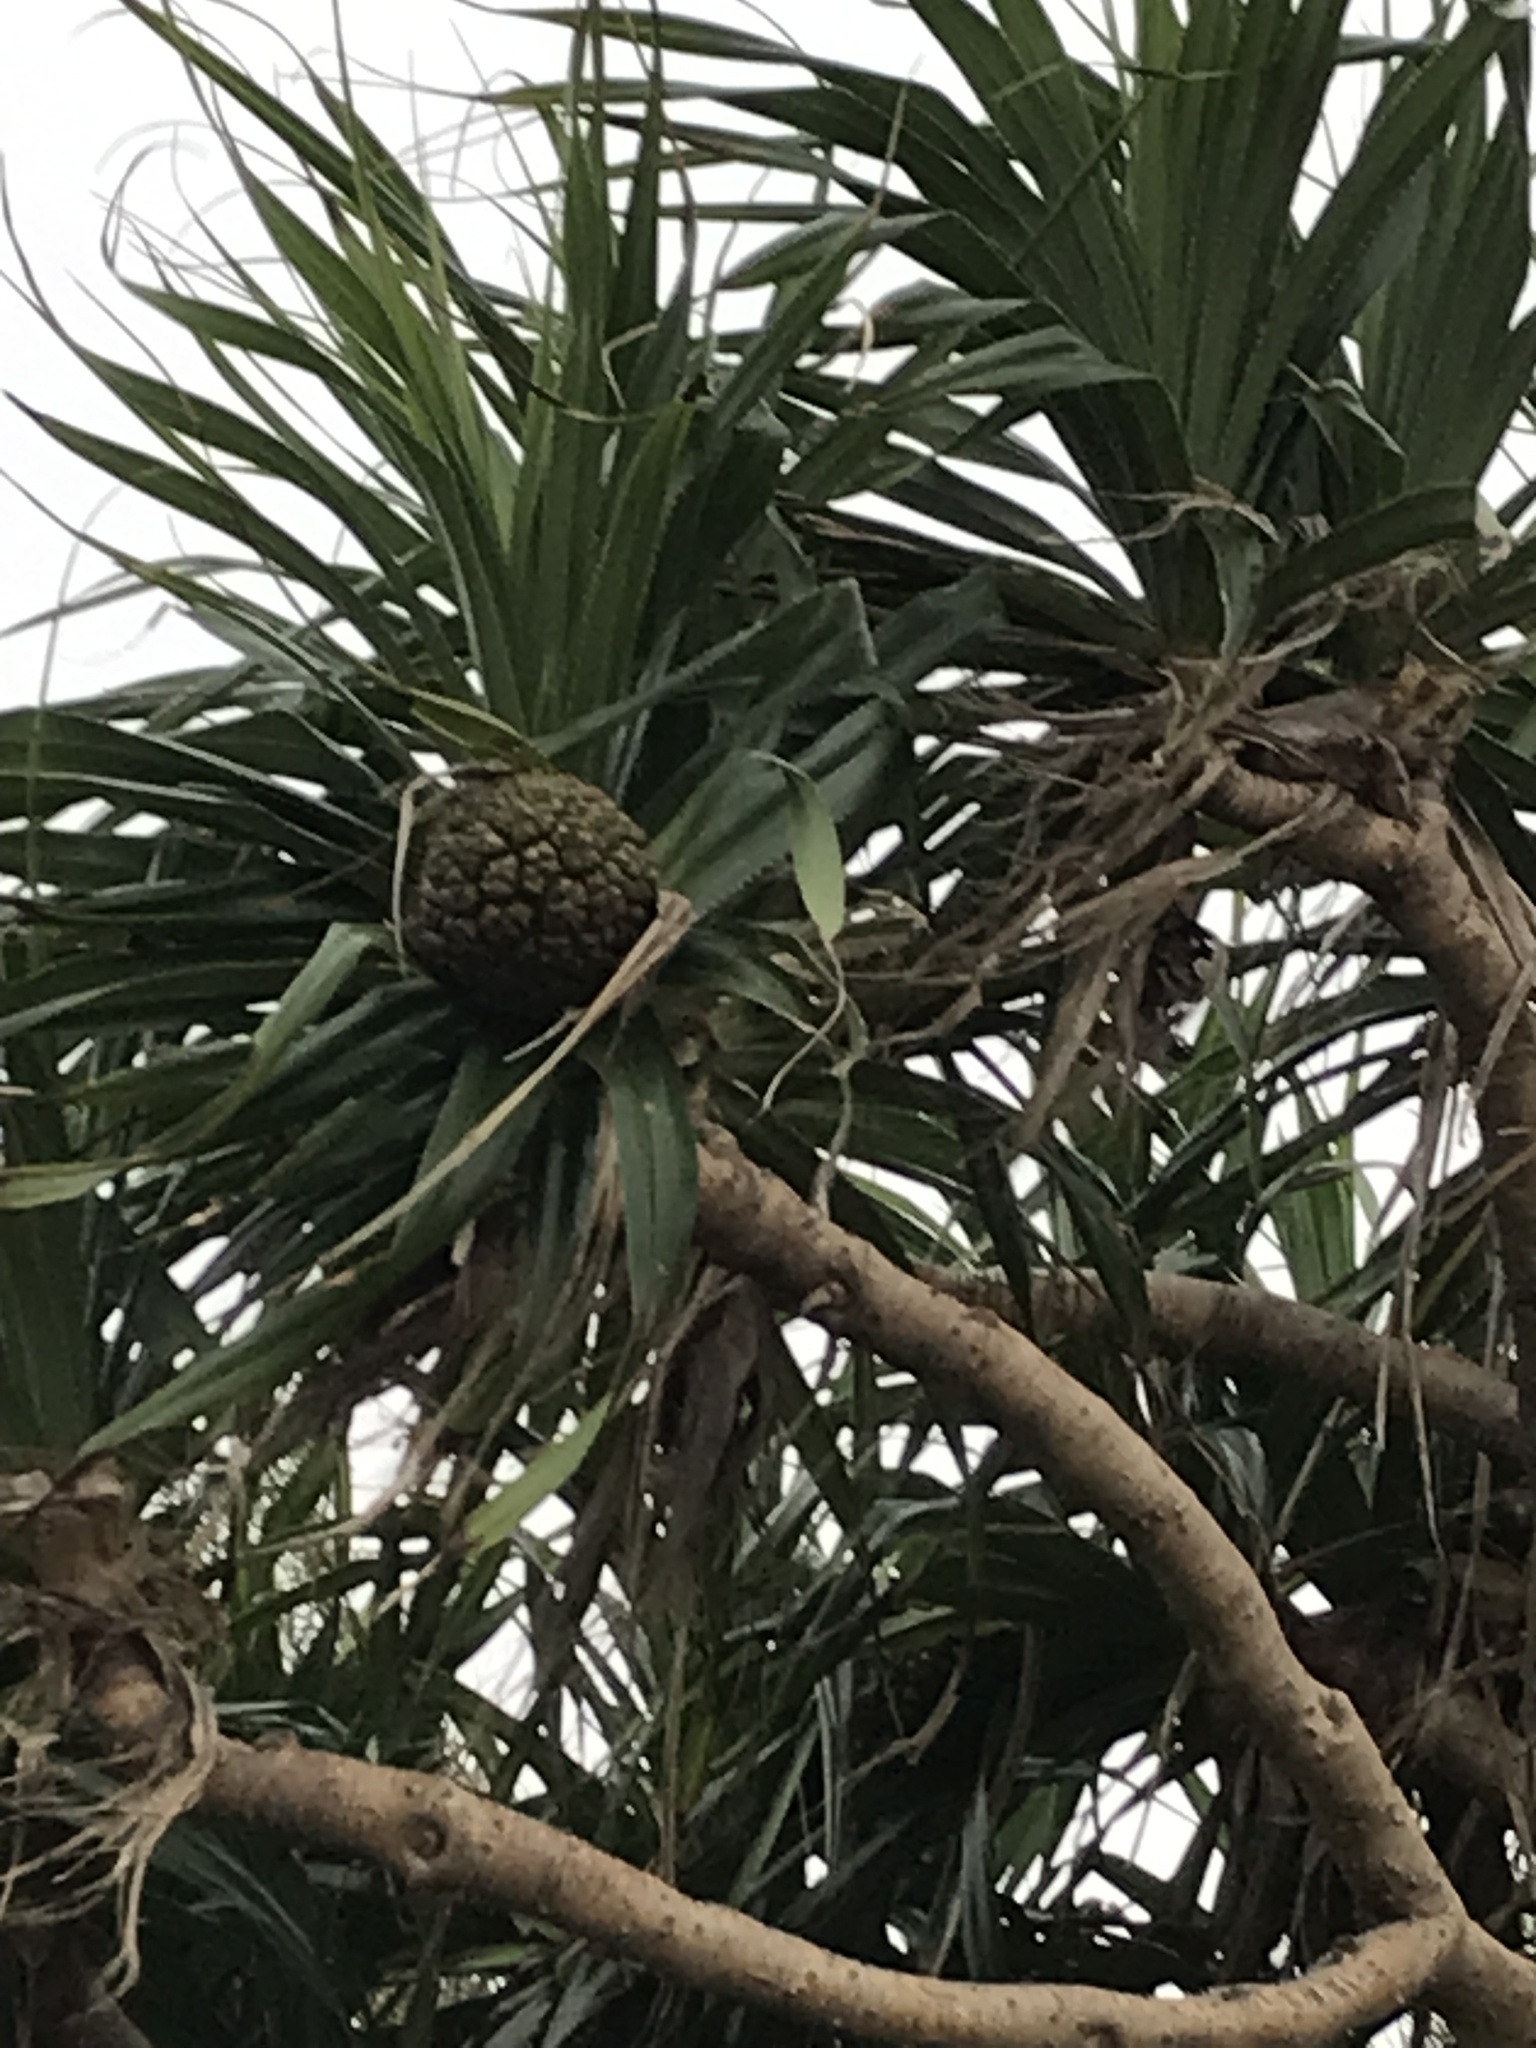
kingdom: Plantae
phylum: Tracheophyta
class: Liliopsida
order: Pandanales
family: Pandanaceae
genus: Pandanus
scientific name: Pandanus tectorius
